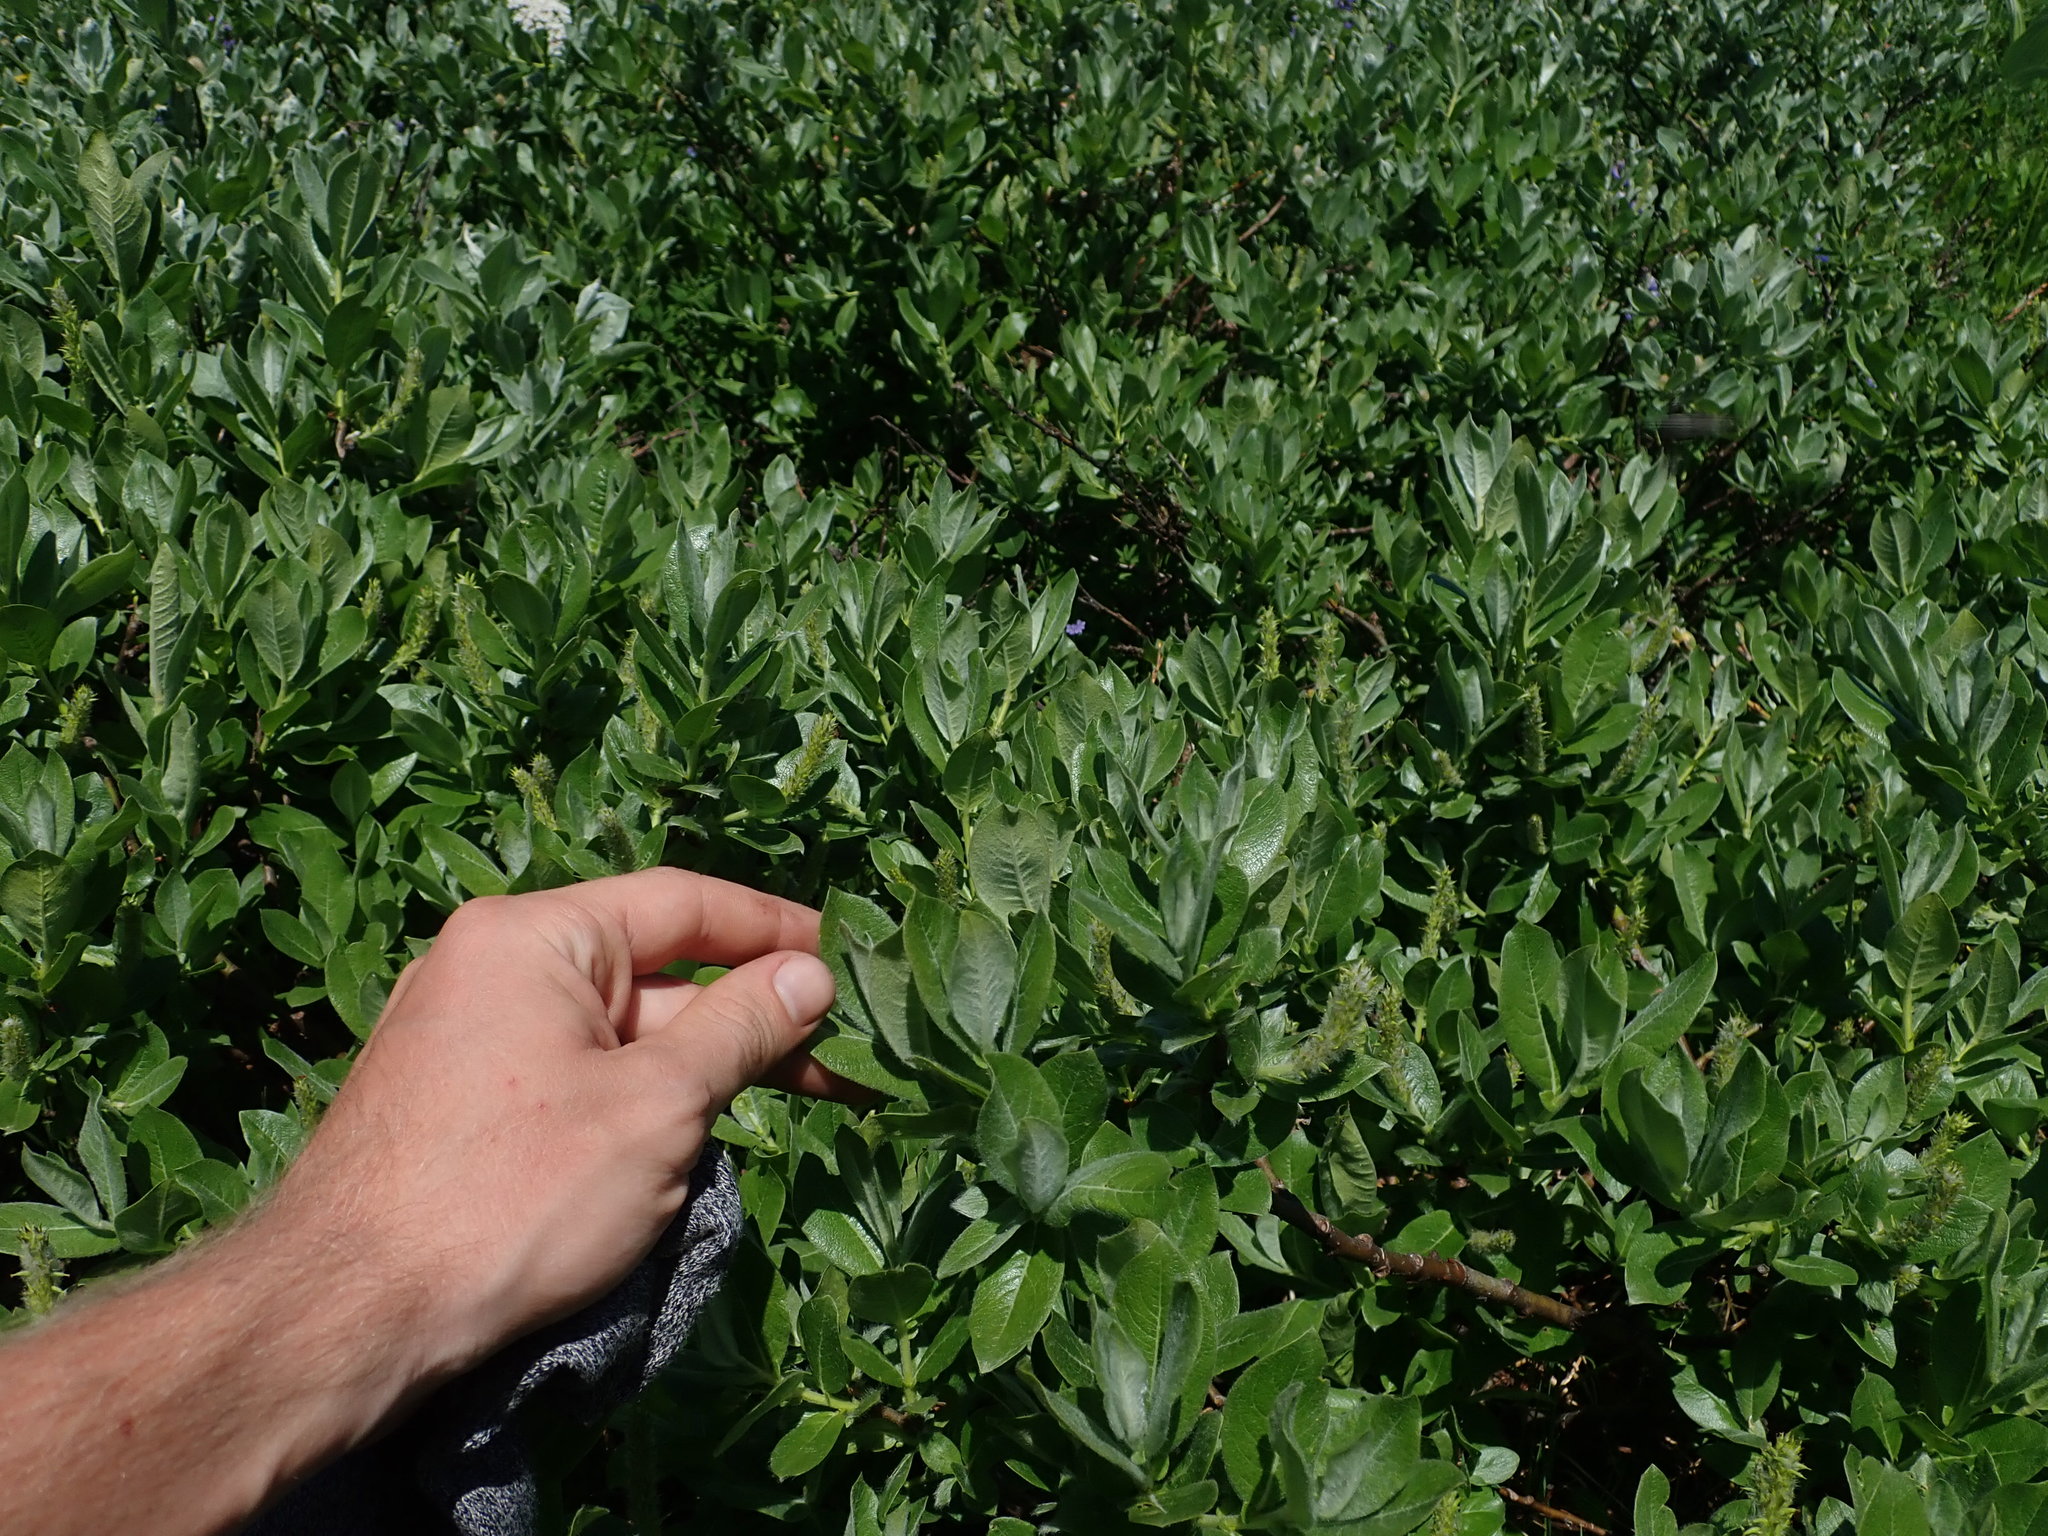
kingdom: Plantae
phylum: Tracheophyta
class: Magnoliopsida
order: Malpighiales
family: Salicaceae
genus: Salix
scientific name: Salix commutata
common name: Under-green willow
